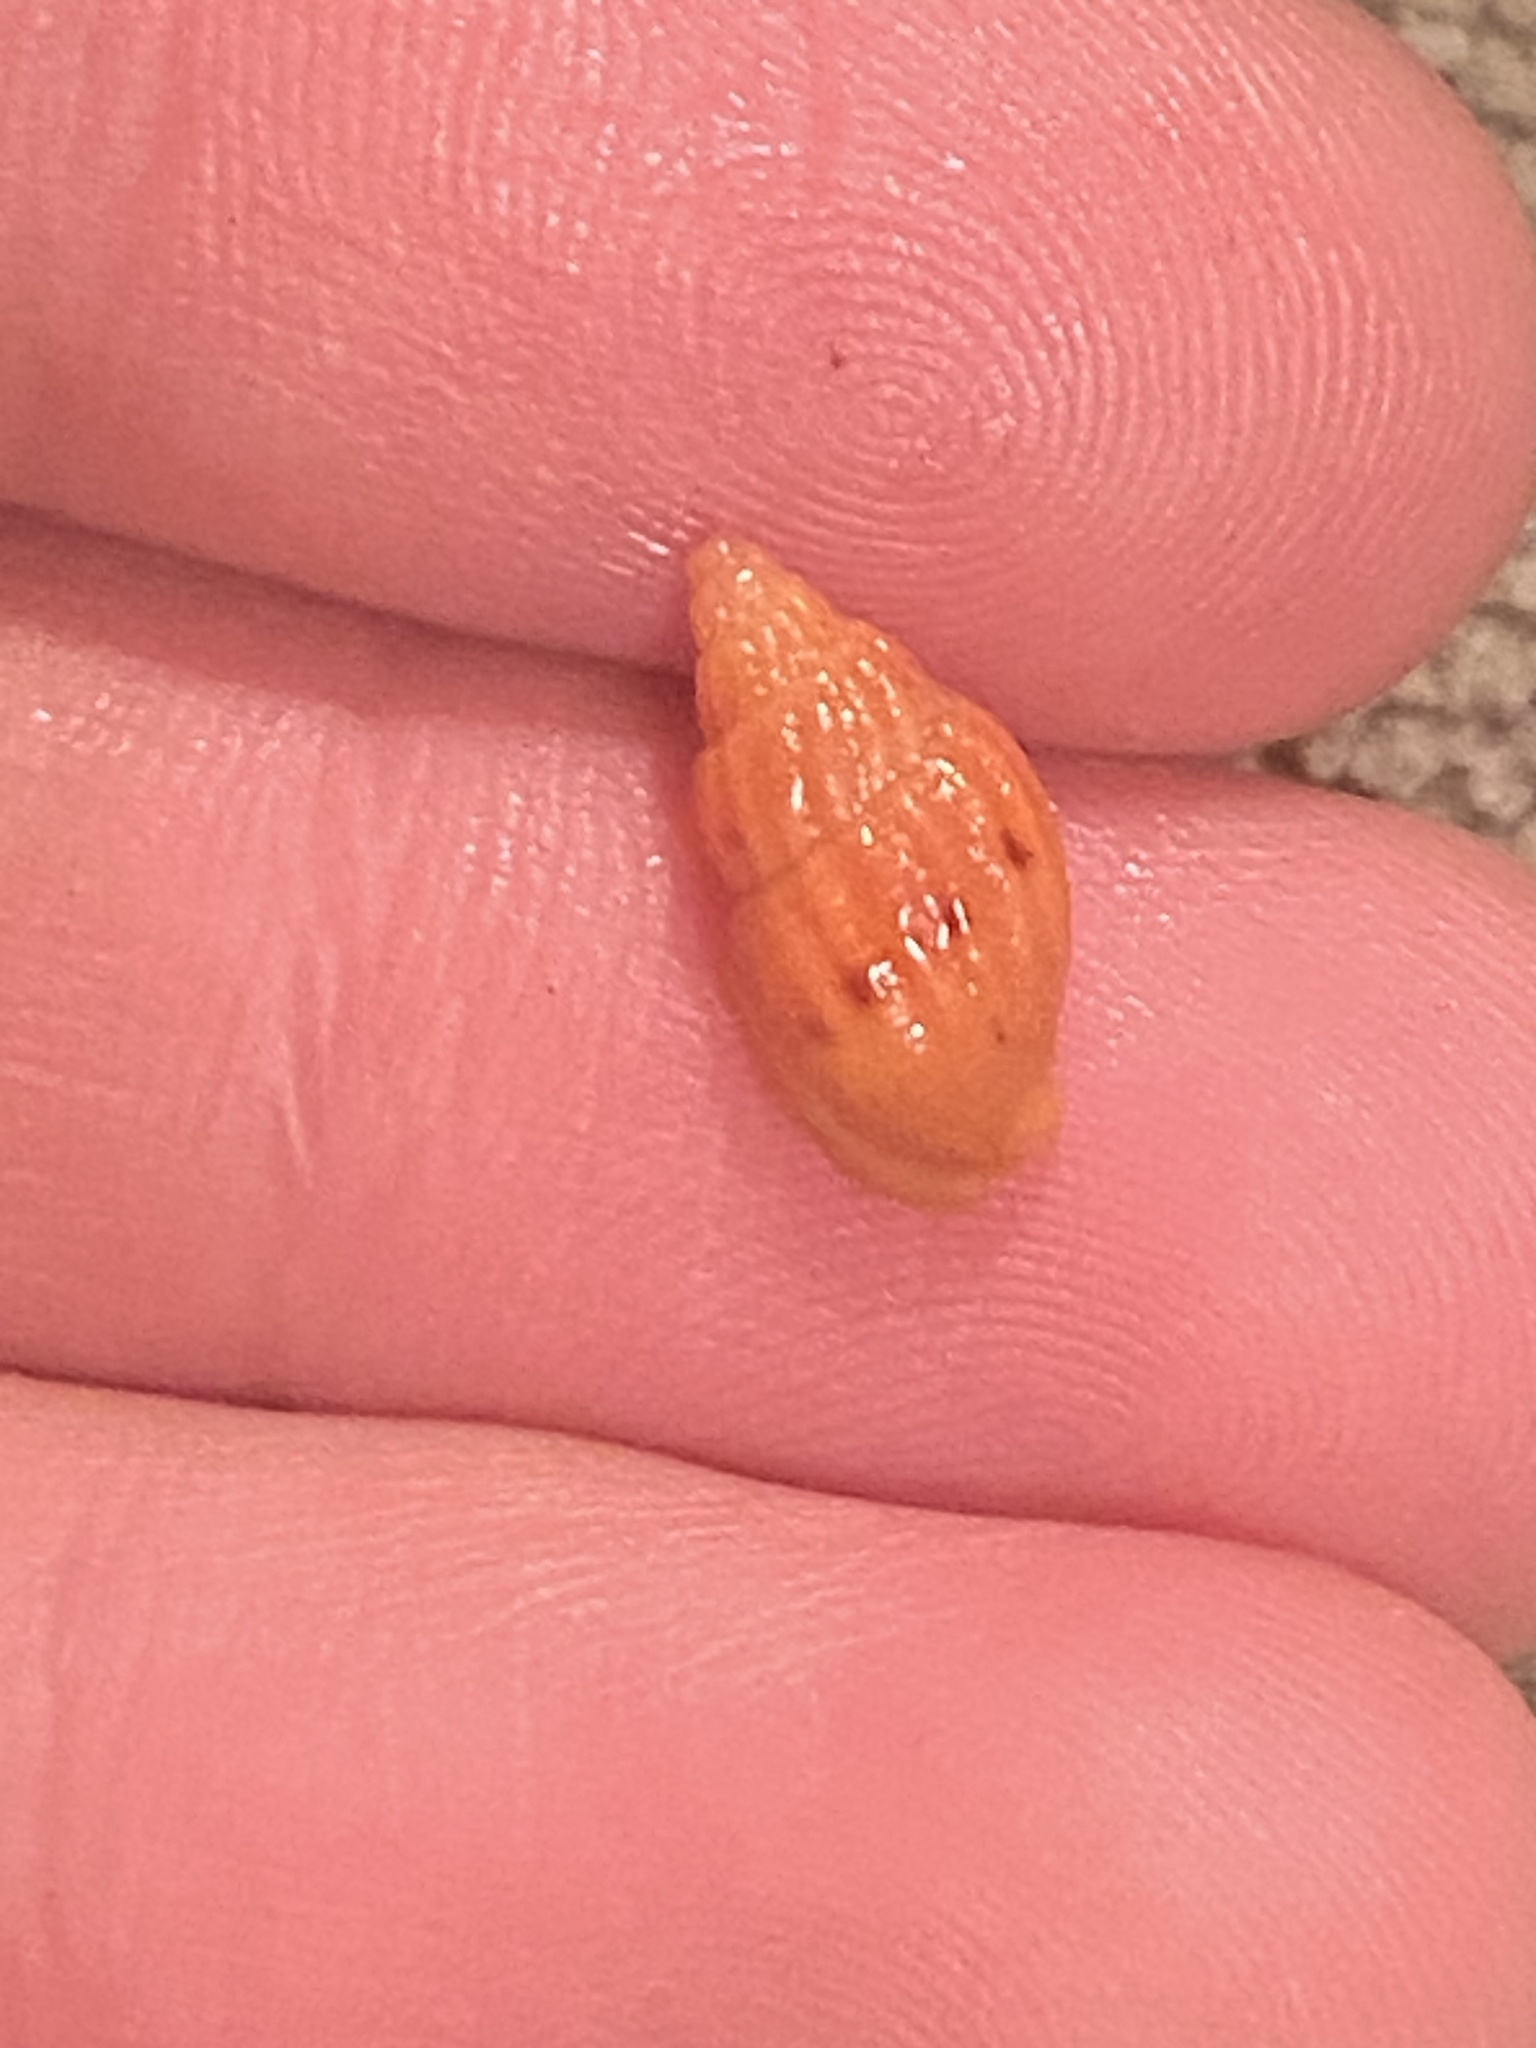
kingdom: Animalia
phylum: Mollusca
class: Gastropoda
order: Neogastropoda
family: Columbellidae
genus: Amphissa
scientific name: Amphissa versicolor
